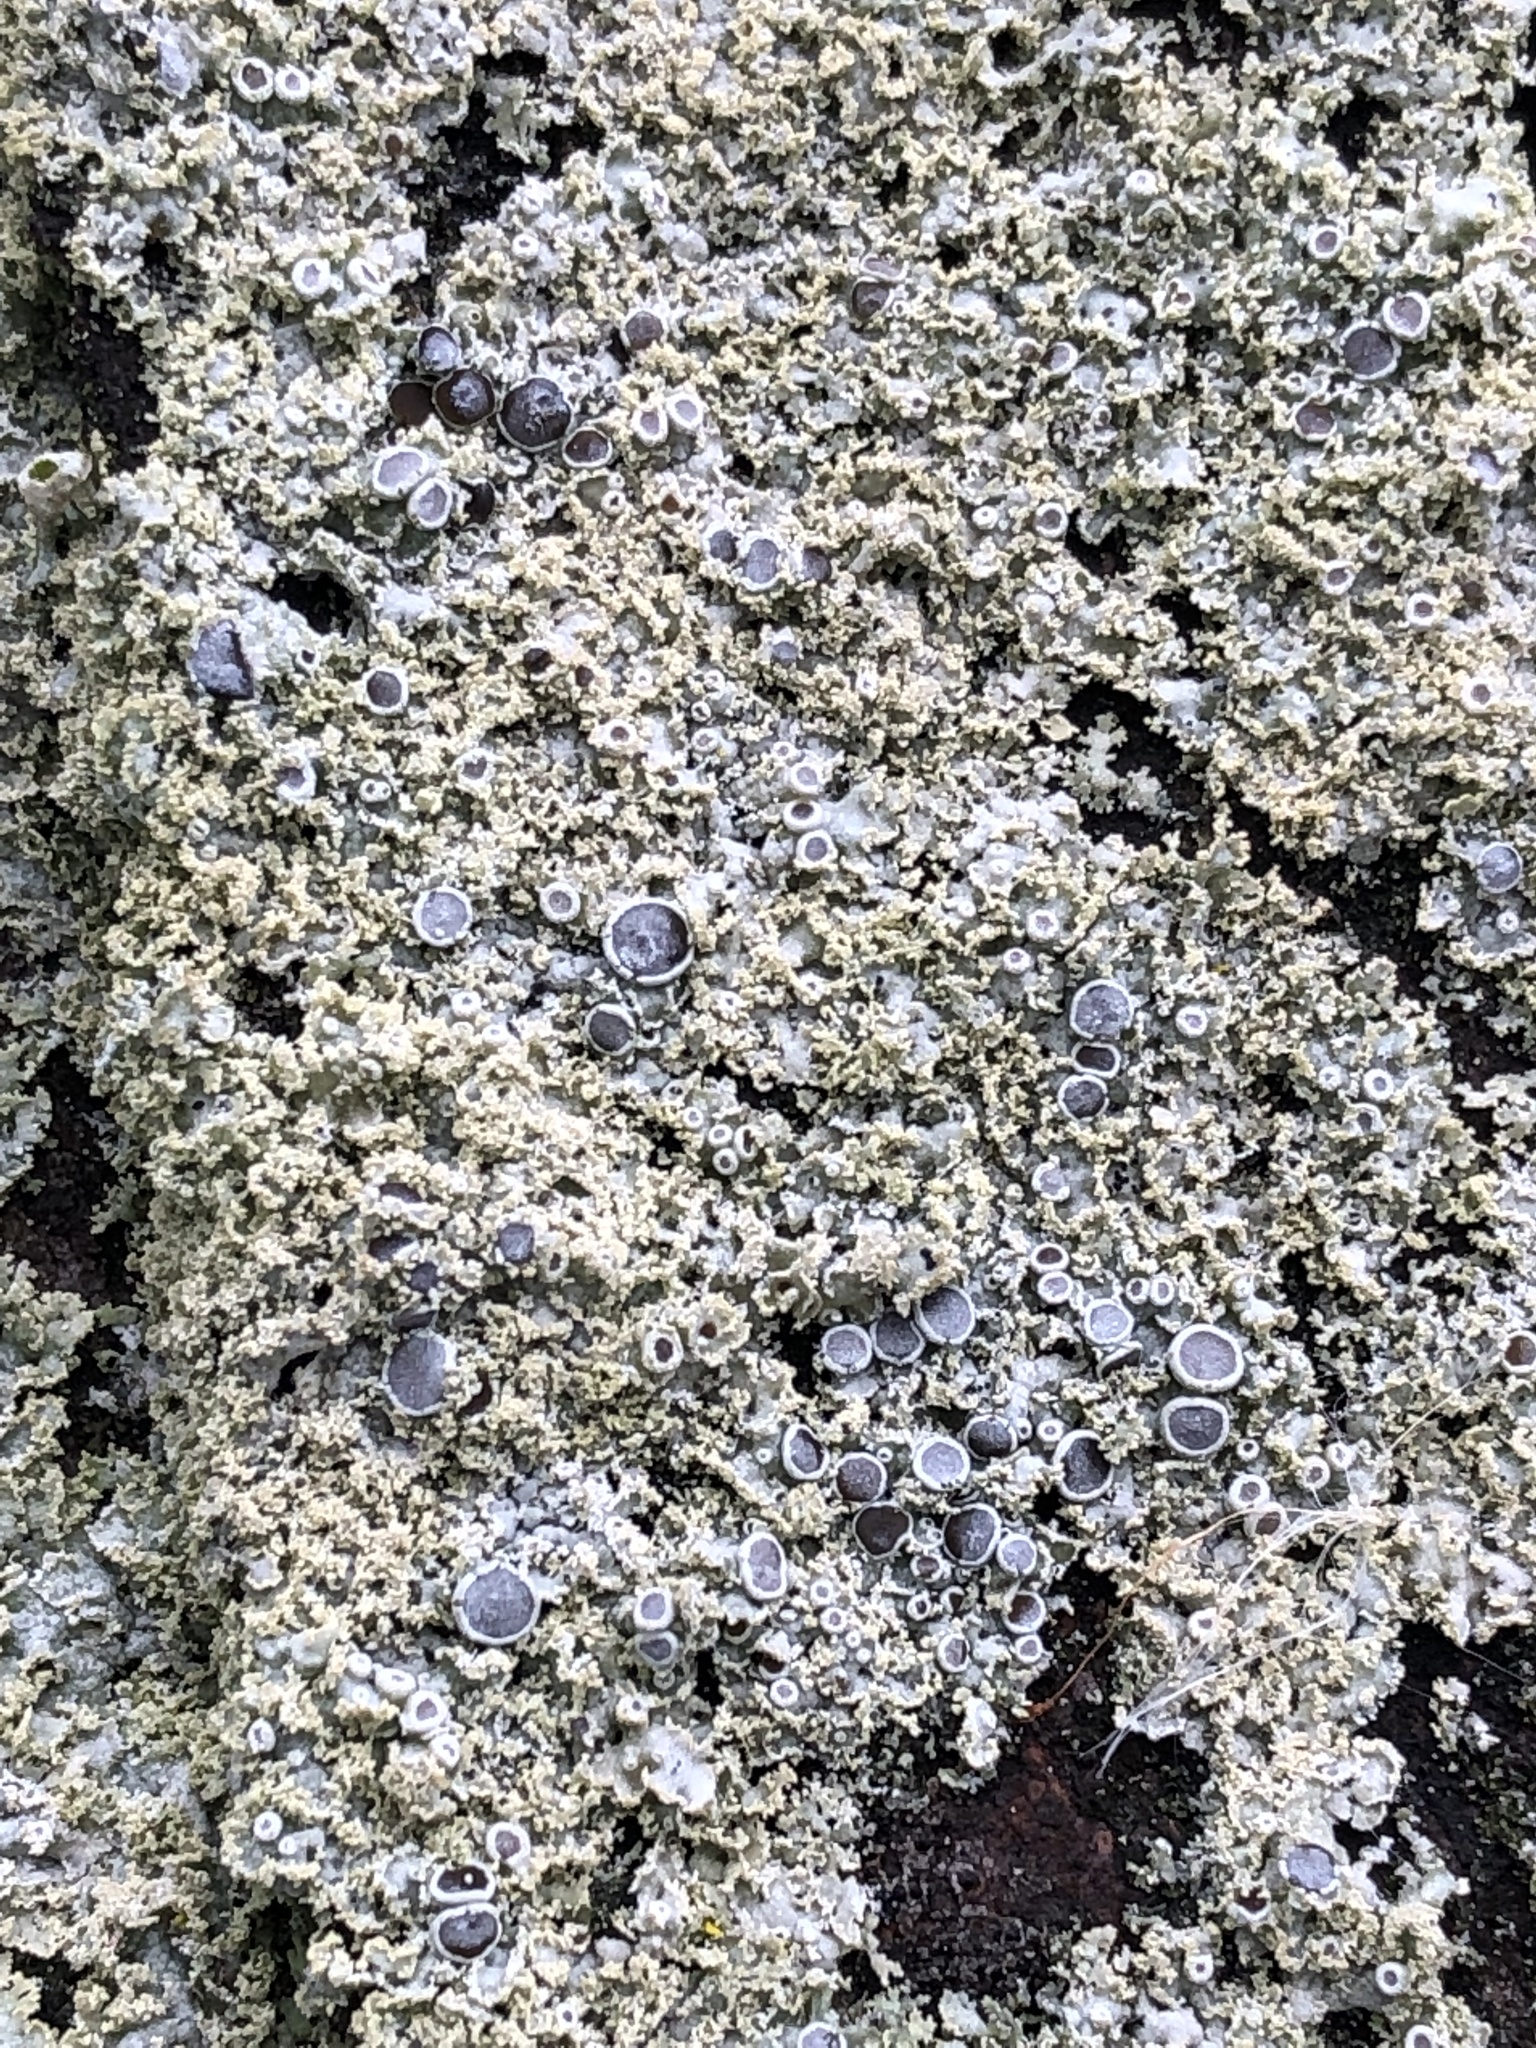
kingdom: Fungi
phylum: Ascomycota
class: Lecanoromycetes
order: Caliciales
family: Physciaceae
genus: Physcia
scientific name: Physcia millegrana
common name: Rosette lichen
